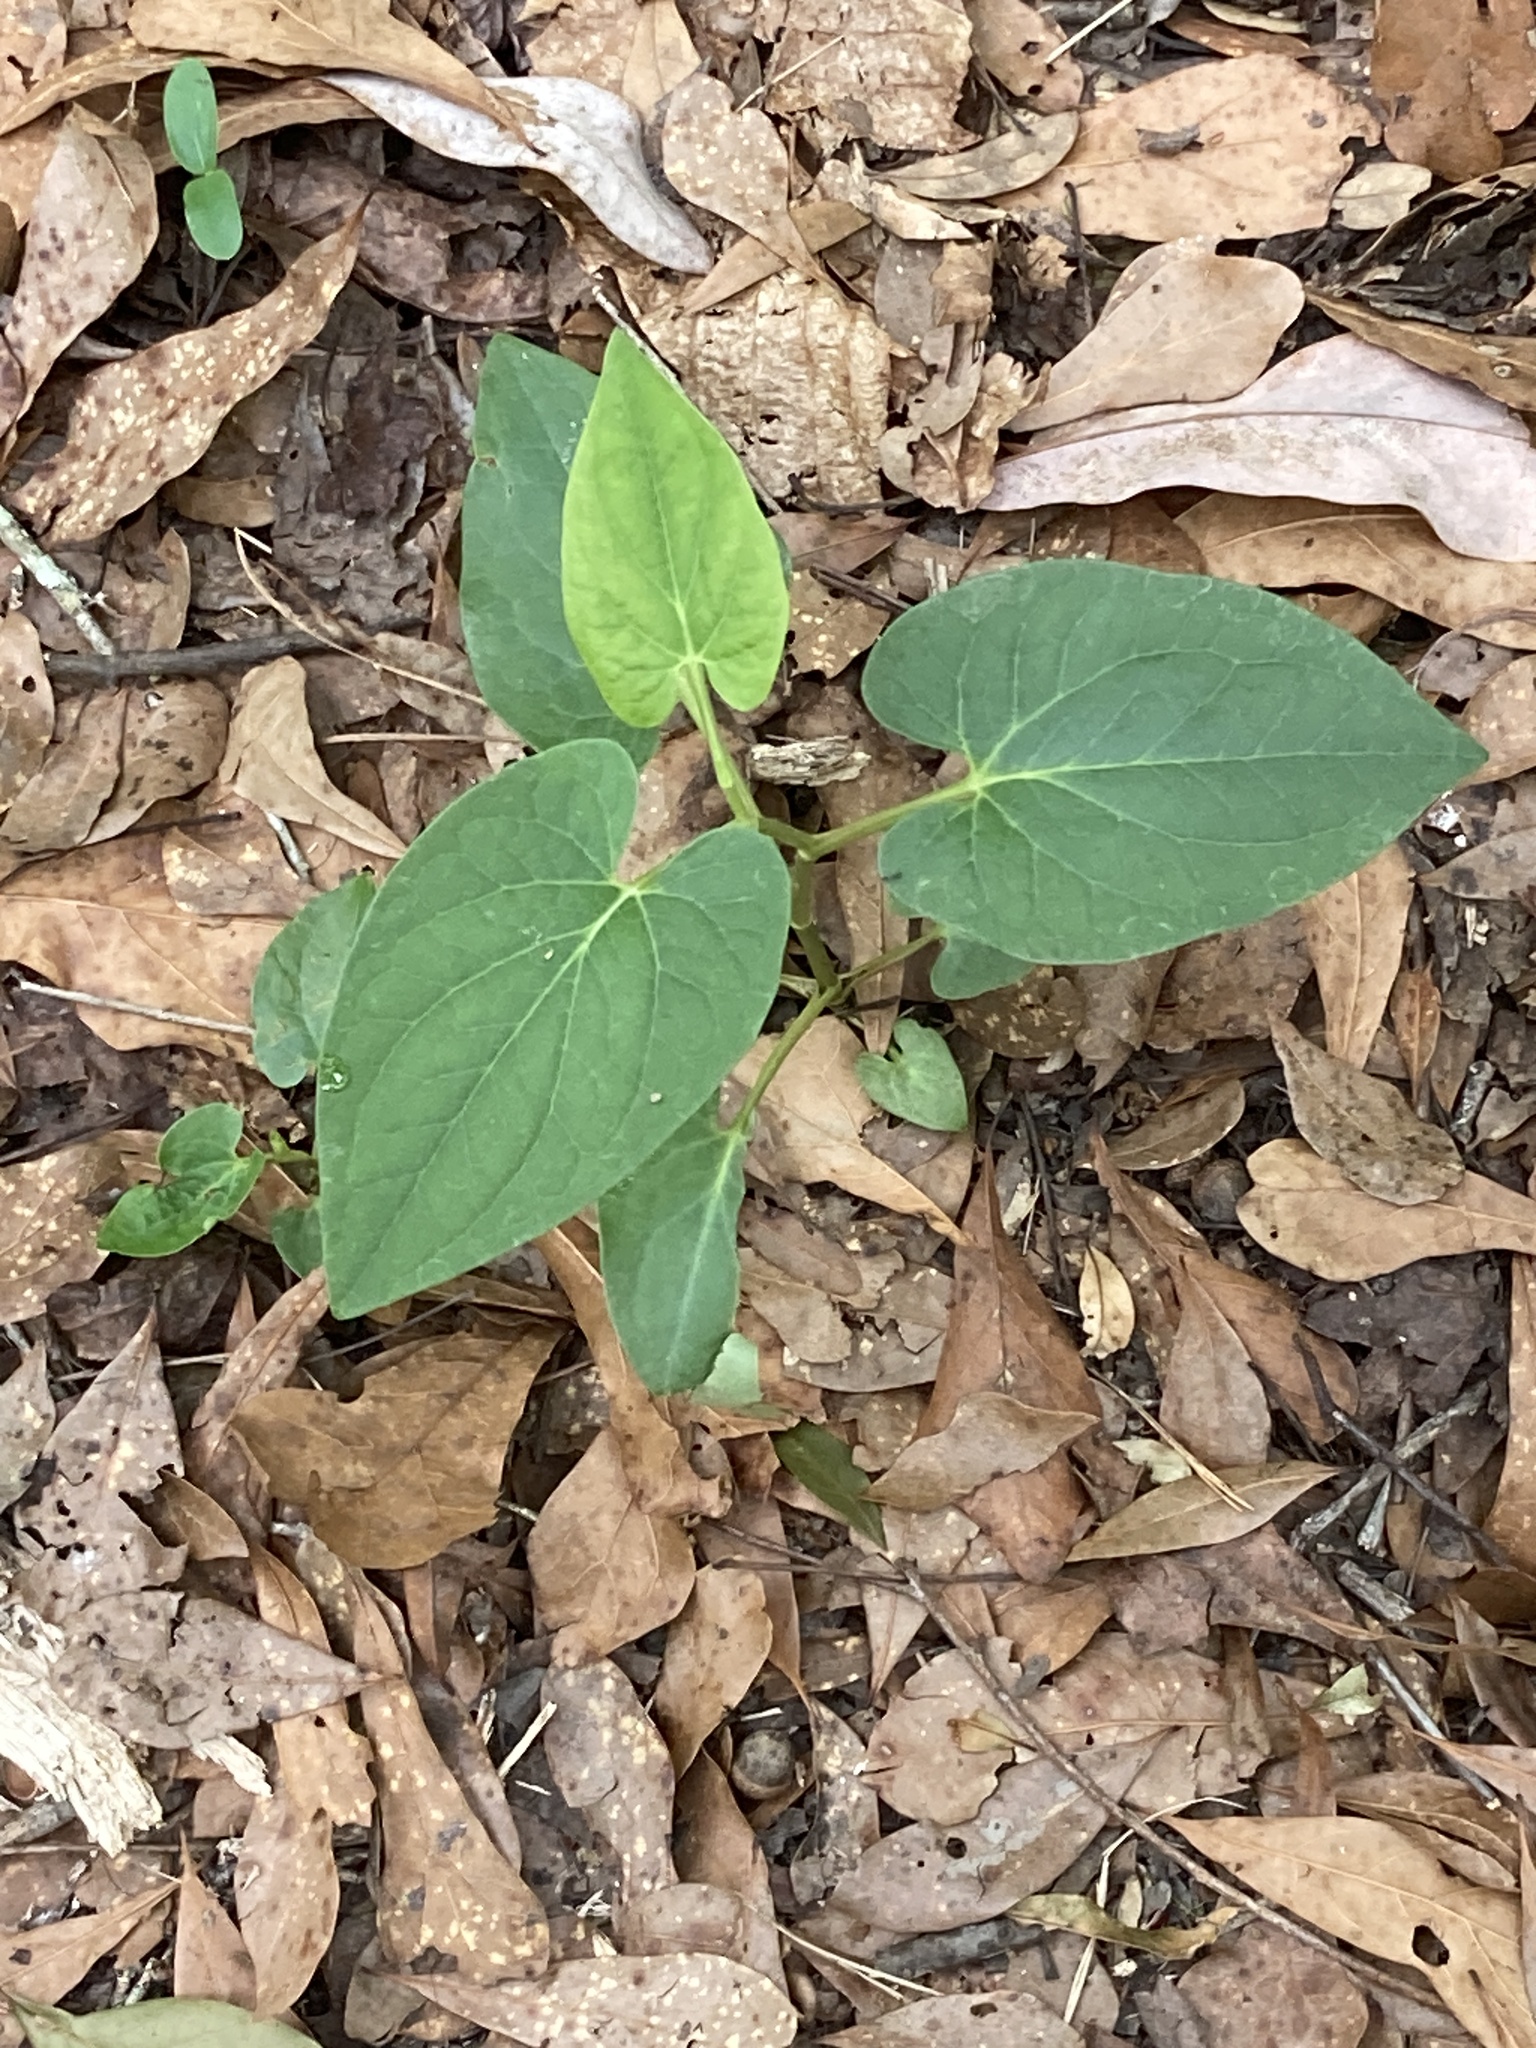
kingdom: Plantae
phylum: Tracheophyta
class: Magnoliopsida
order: Piperales
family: Saururaceae
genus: Saururus
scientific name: Saururus cernuus
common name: Lizard's-tail
